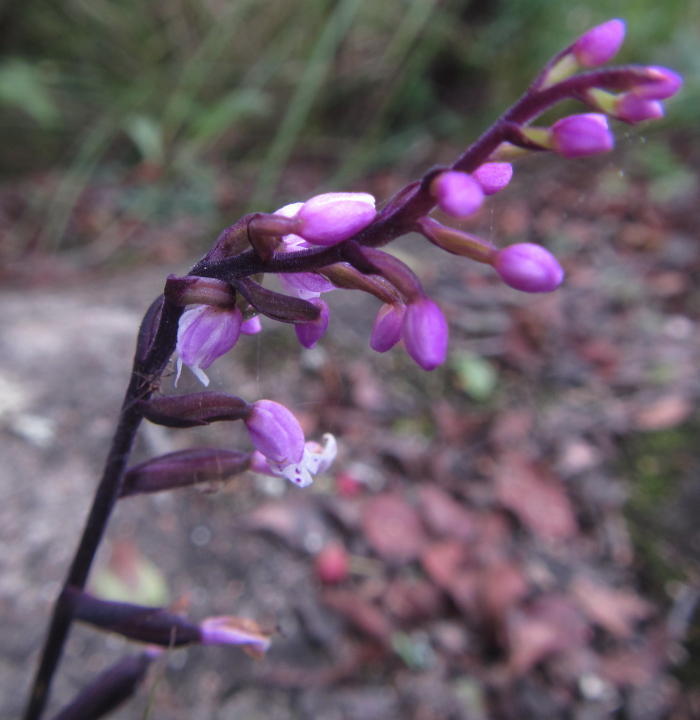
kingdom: Plantae
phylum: Tracheophyta
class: Liliopsida
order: Asparagales
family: Orchidaceae
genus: Stenoglottis
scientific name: Stenoglottis fimbriata
